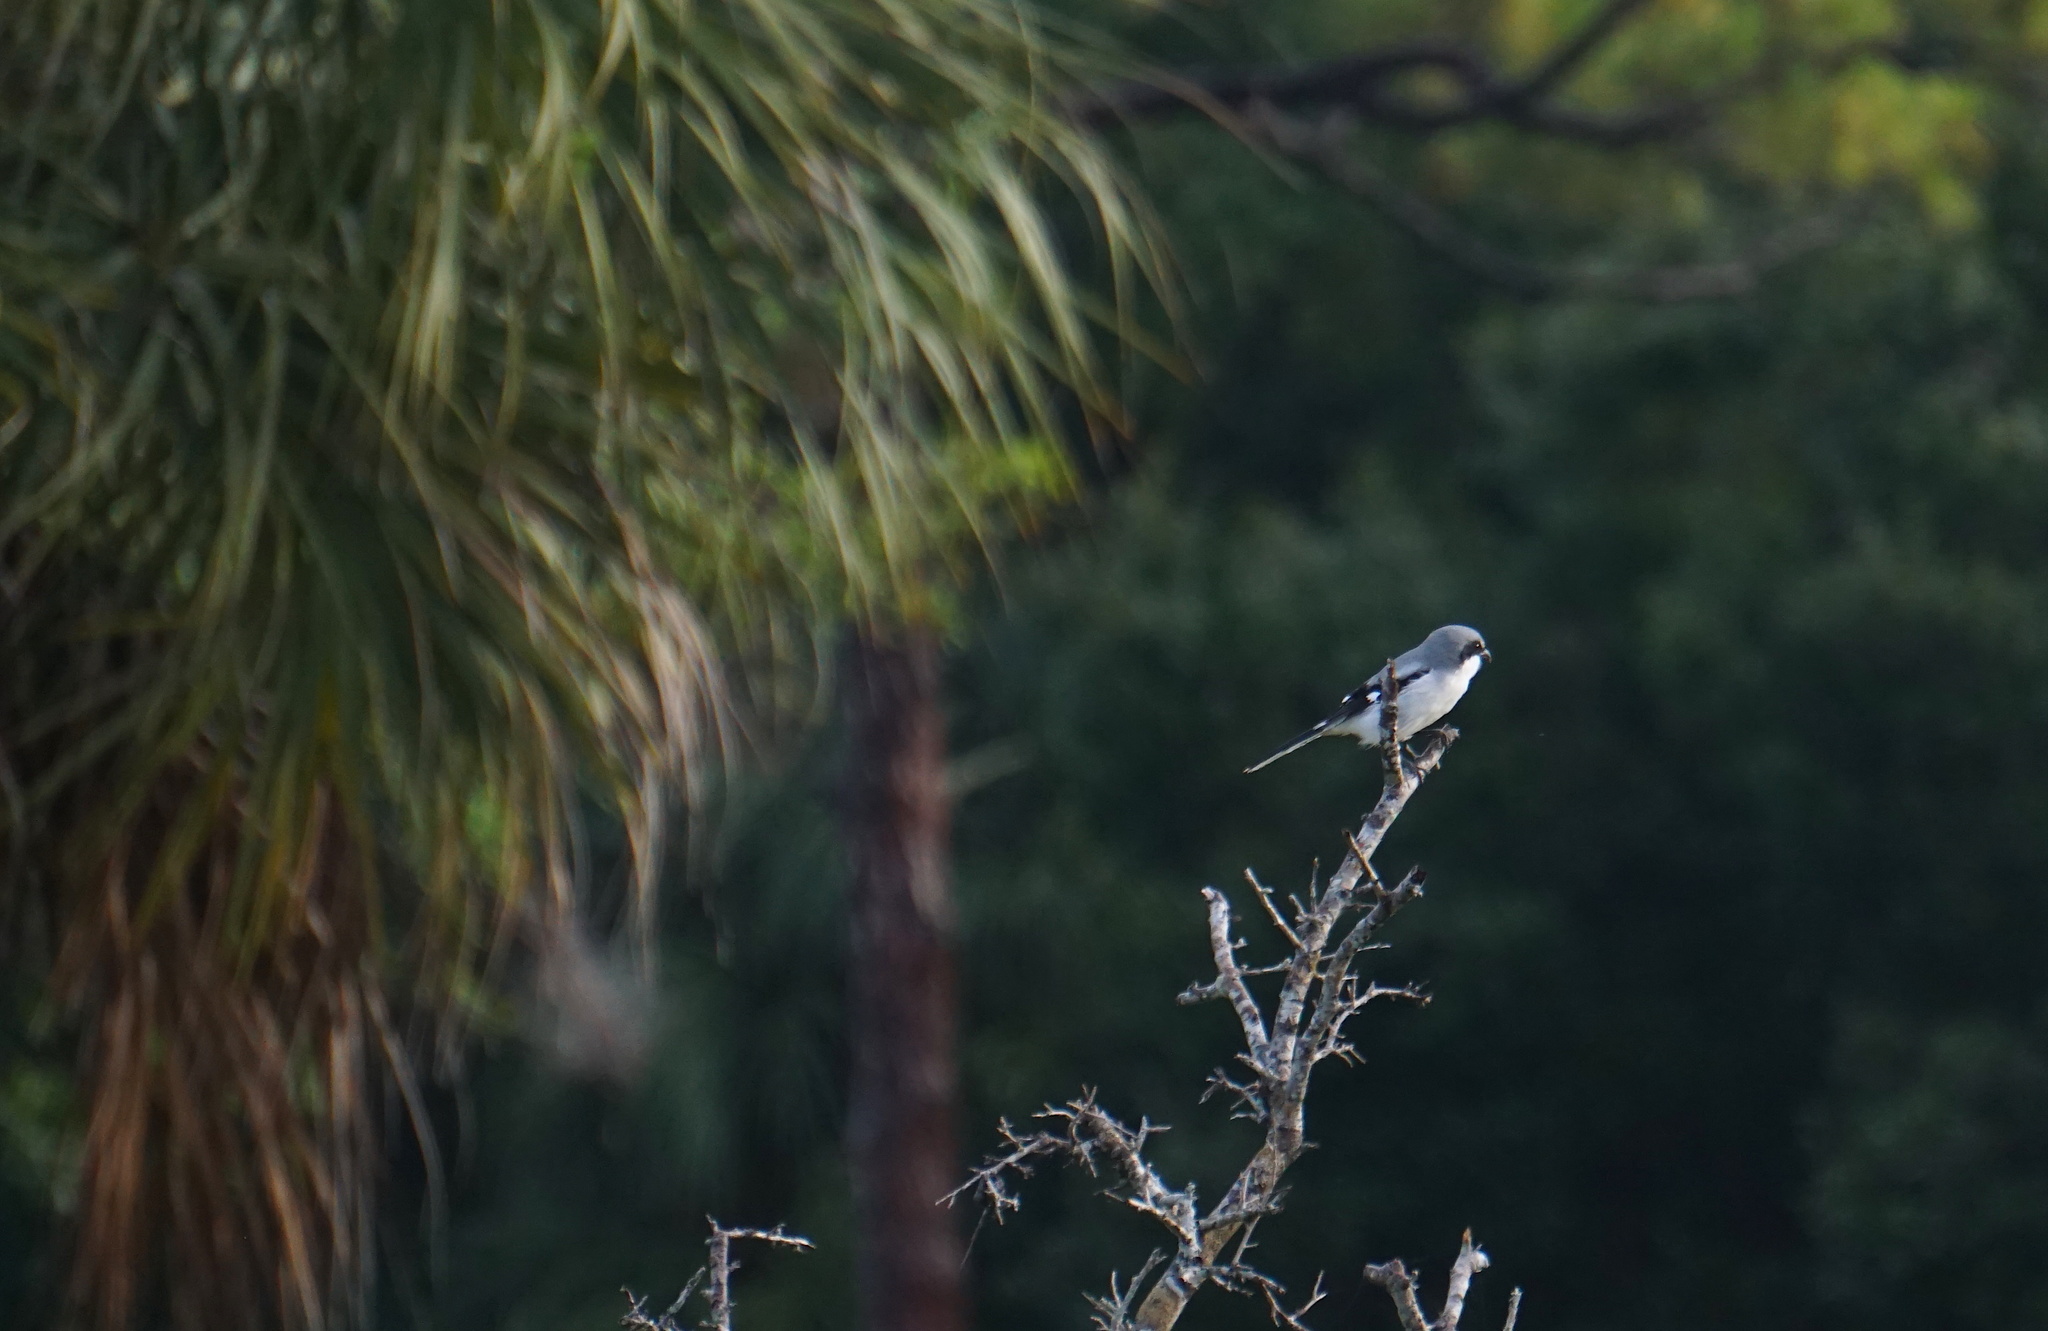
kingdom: Animalia
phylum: Chordata
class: Aves
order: Passeriformes
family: Laniidae
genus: Lanius
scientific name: Lanius ludovicianus
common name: Loggerhead shrike
